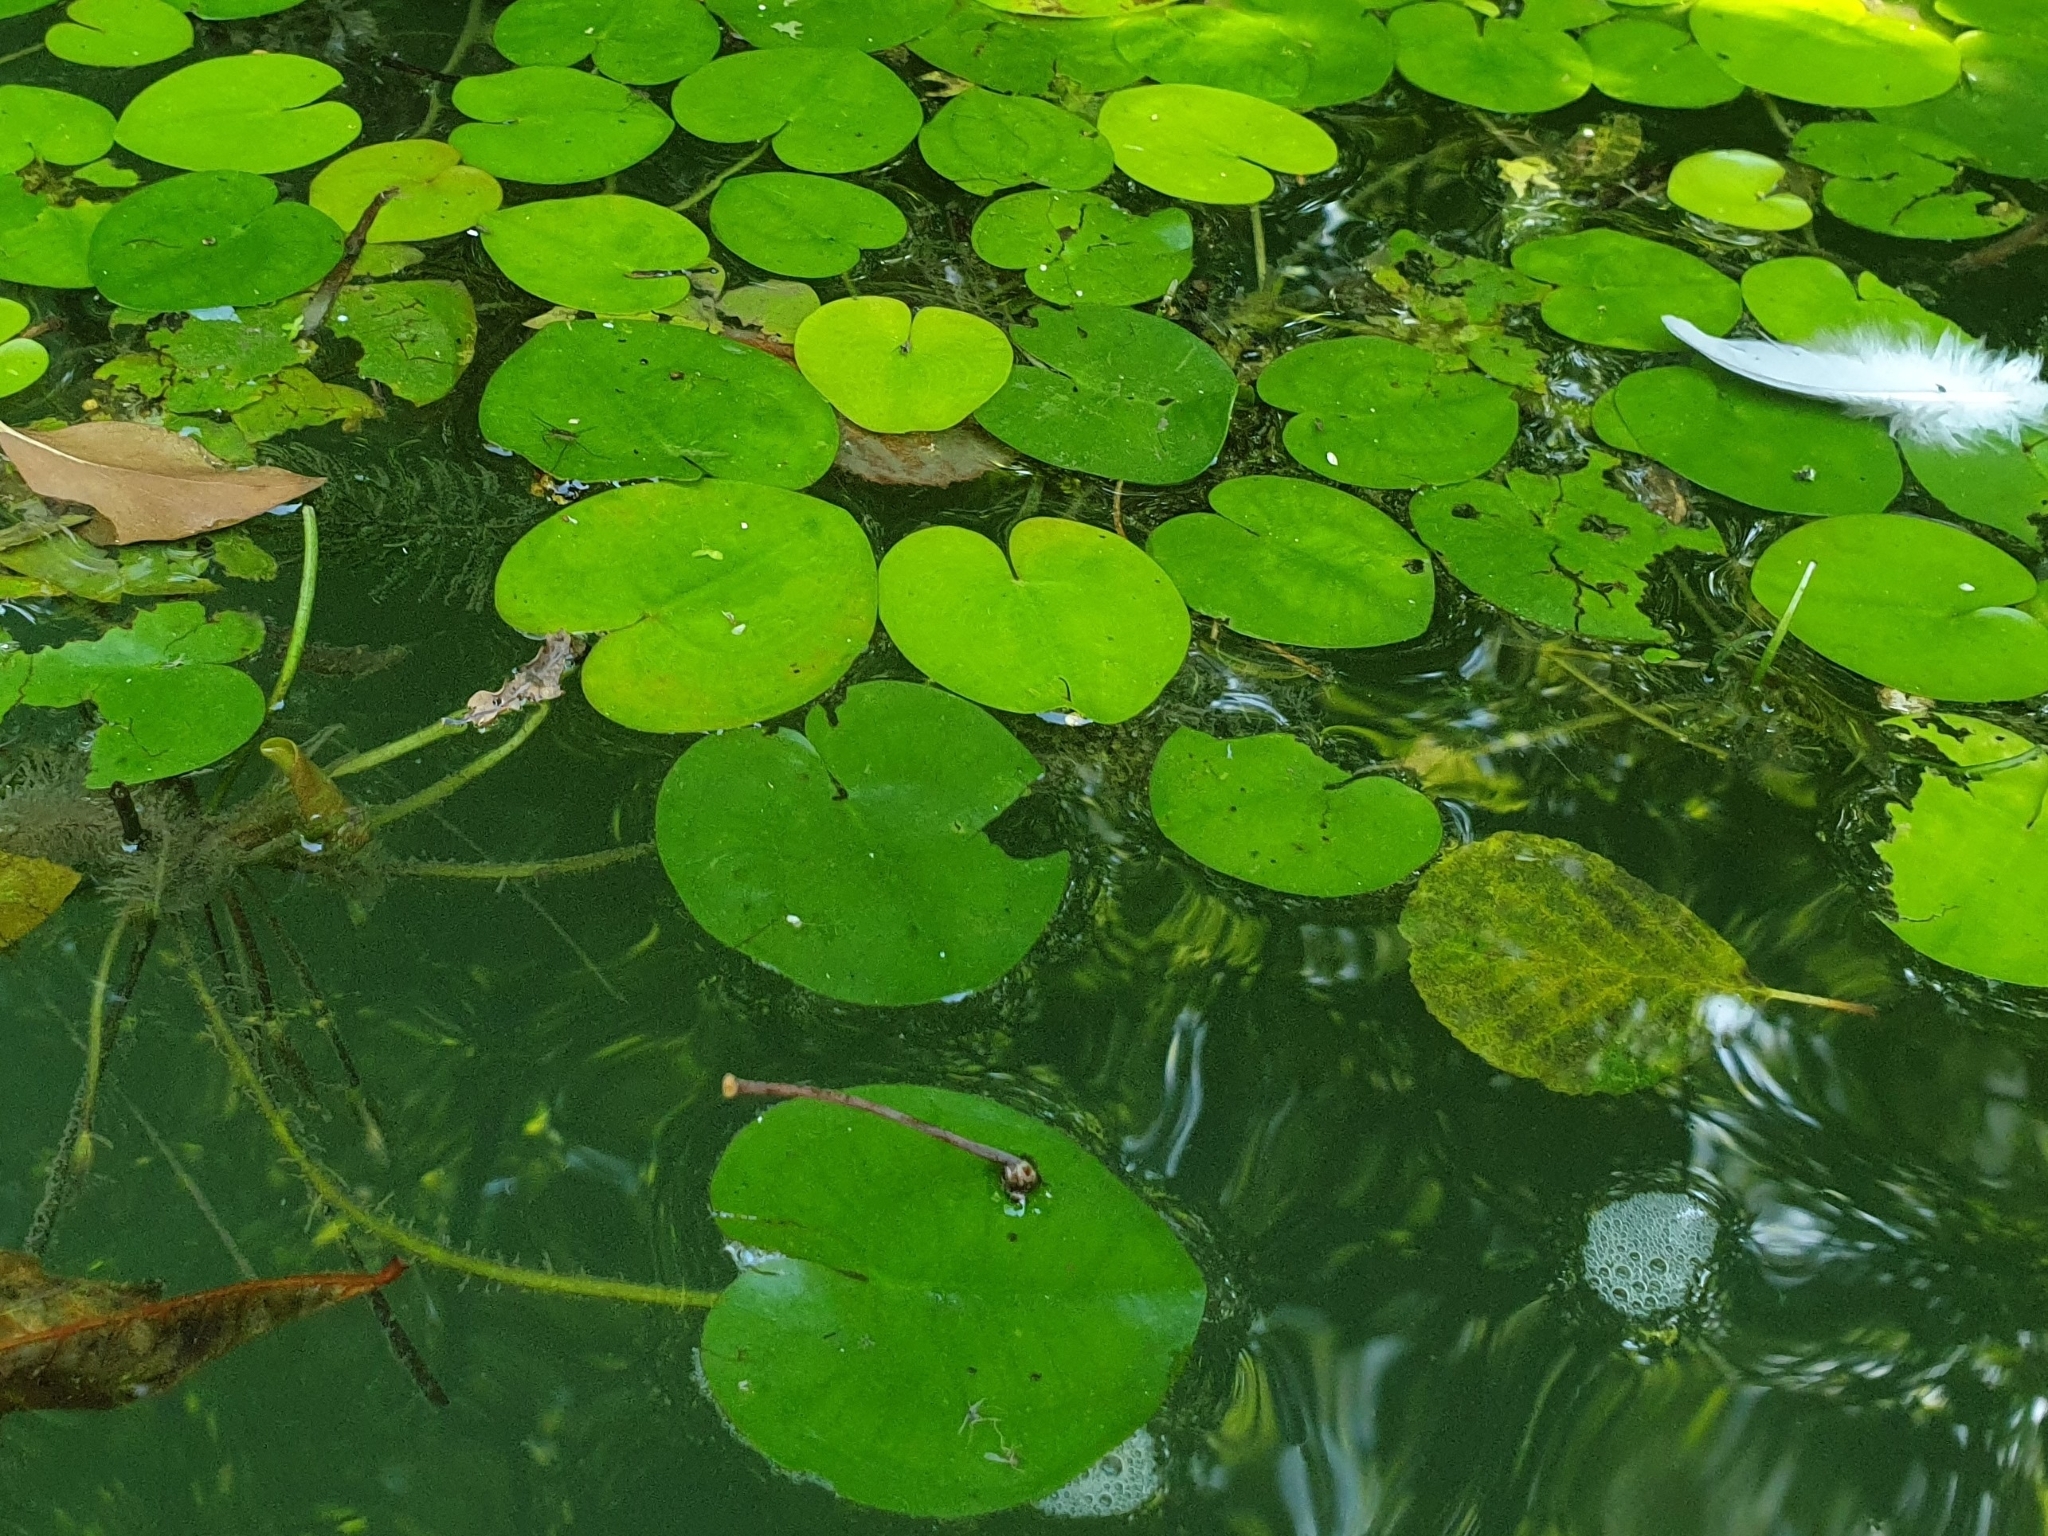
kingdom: Plantae
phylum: Tracheophyta
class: Liliopsida
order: Alismatales
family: Hydrocharitaceae
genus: Hydrocharis
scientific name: Hydrocharis morsus-ranae
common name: Frogbit
